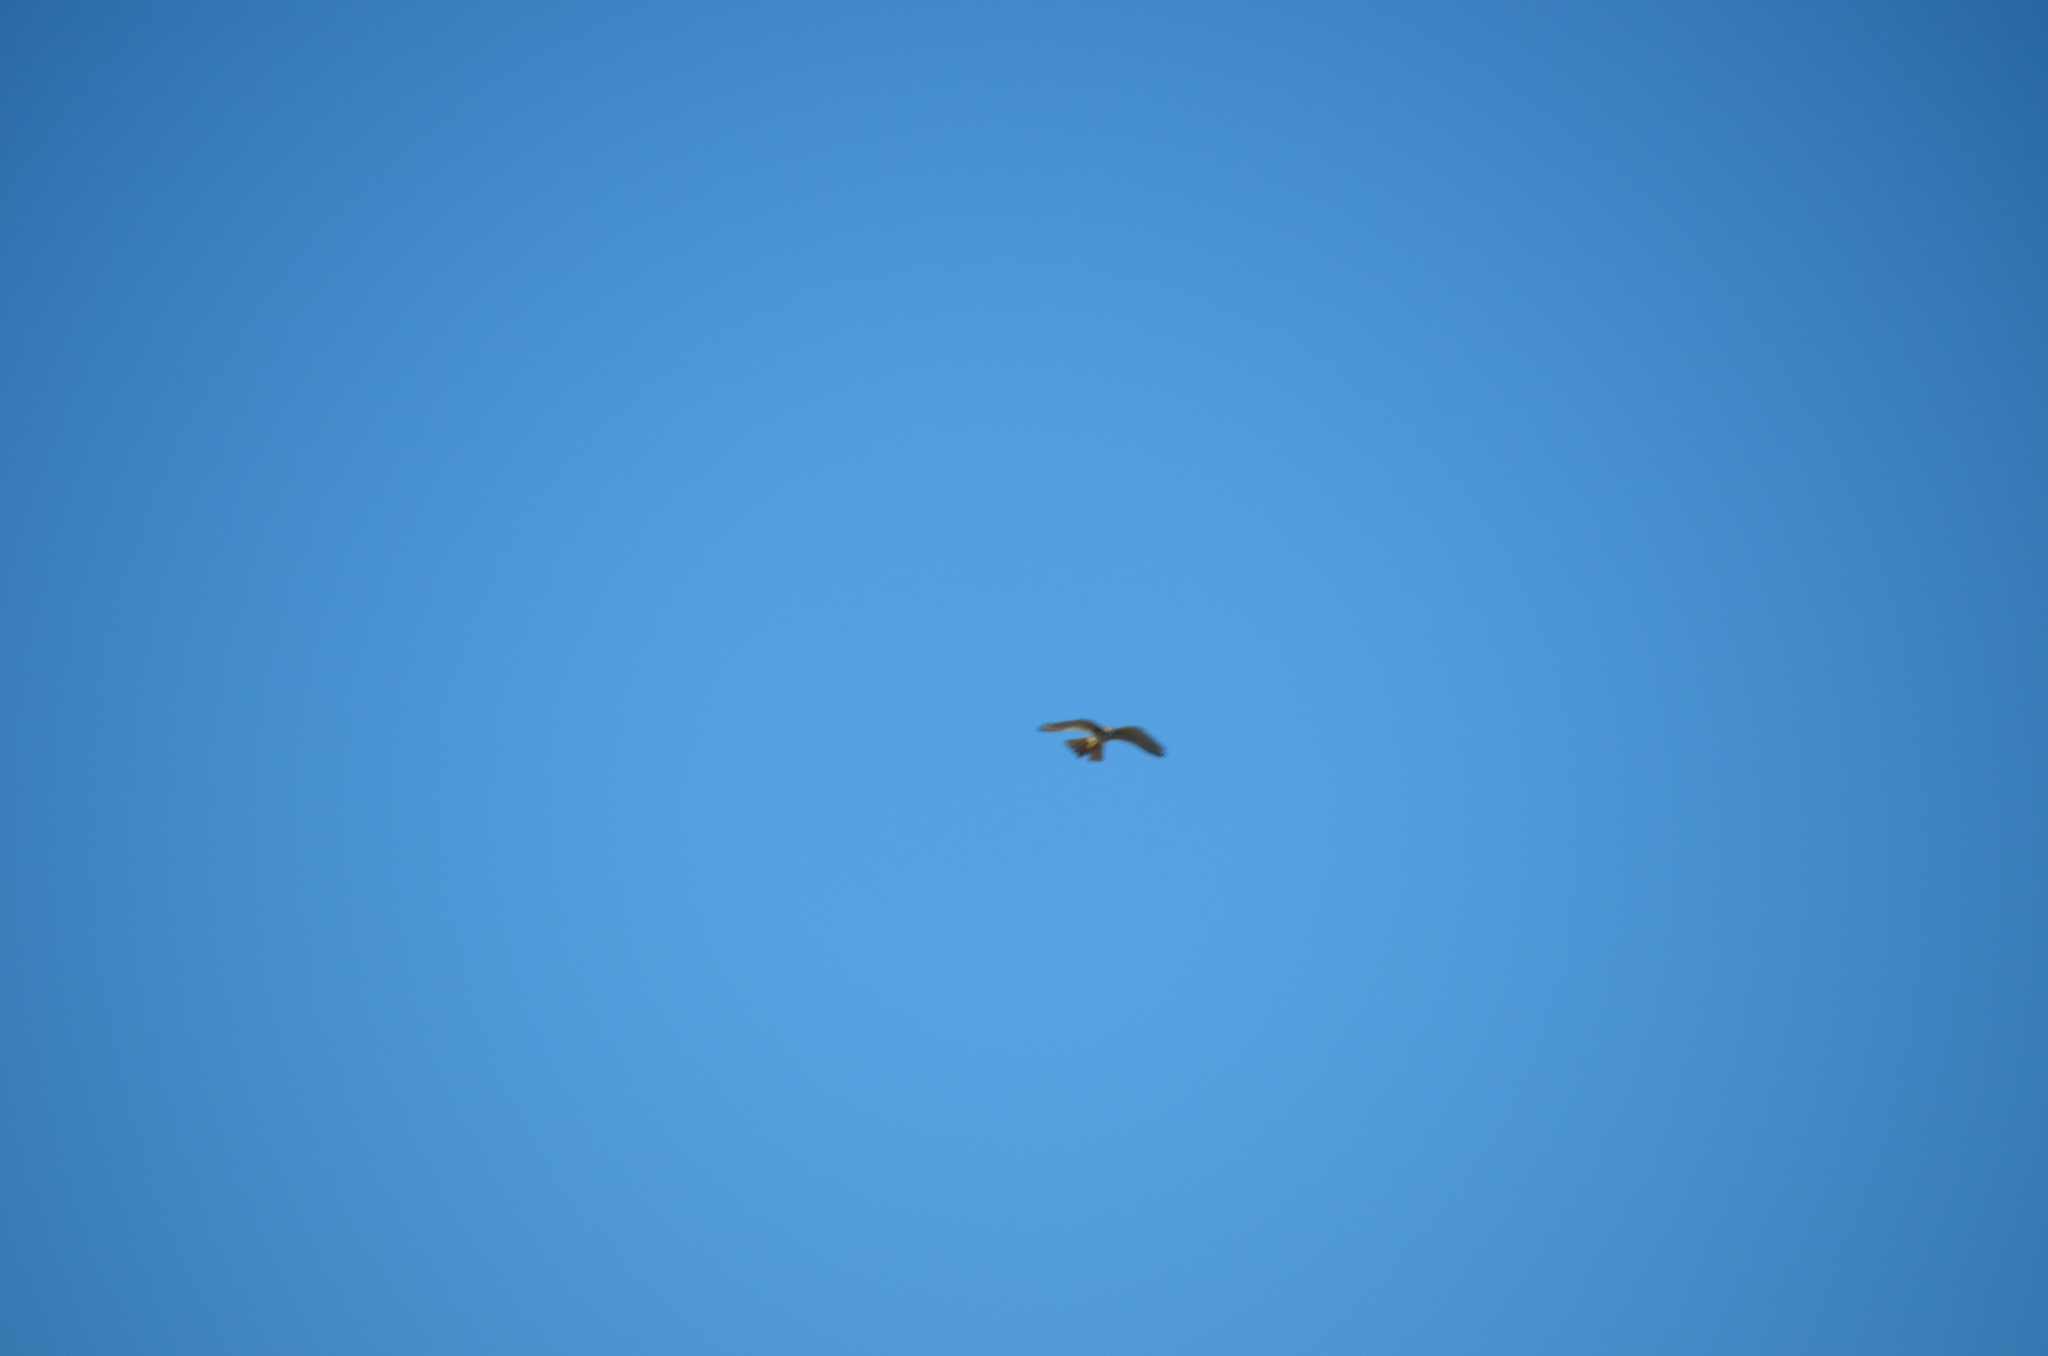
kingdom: Animalia
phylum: Chordata
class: Aves
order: Falconiformes
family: Falconidae
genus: Falco
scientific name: Falco sparverius
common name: American kestrel
